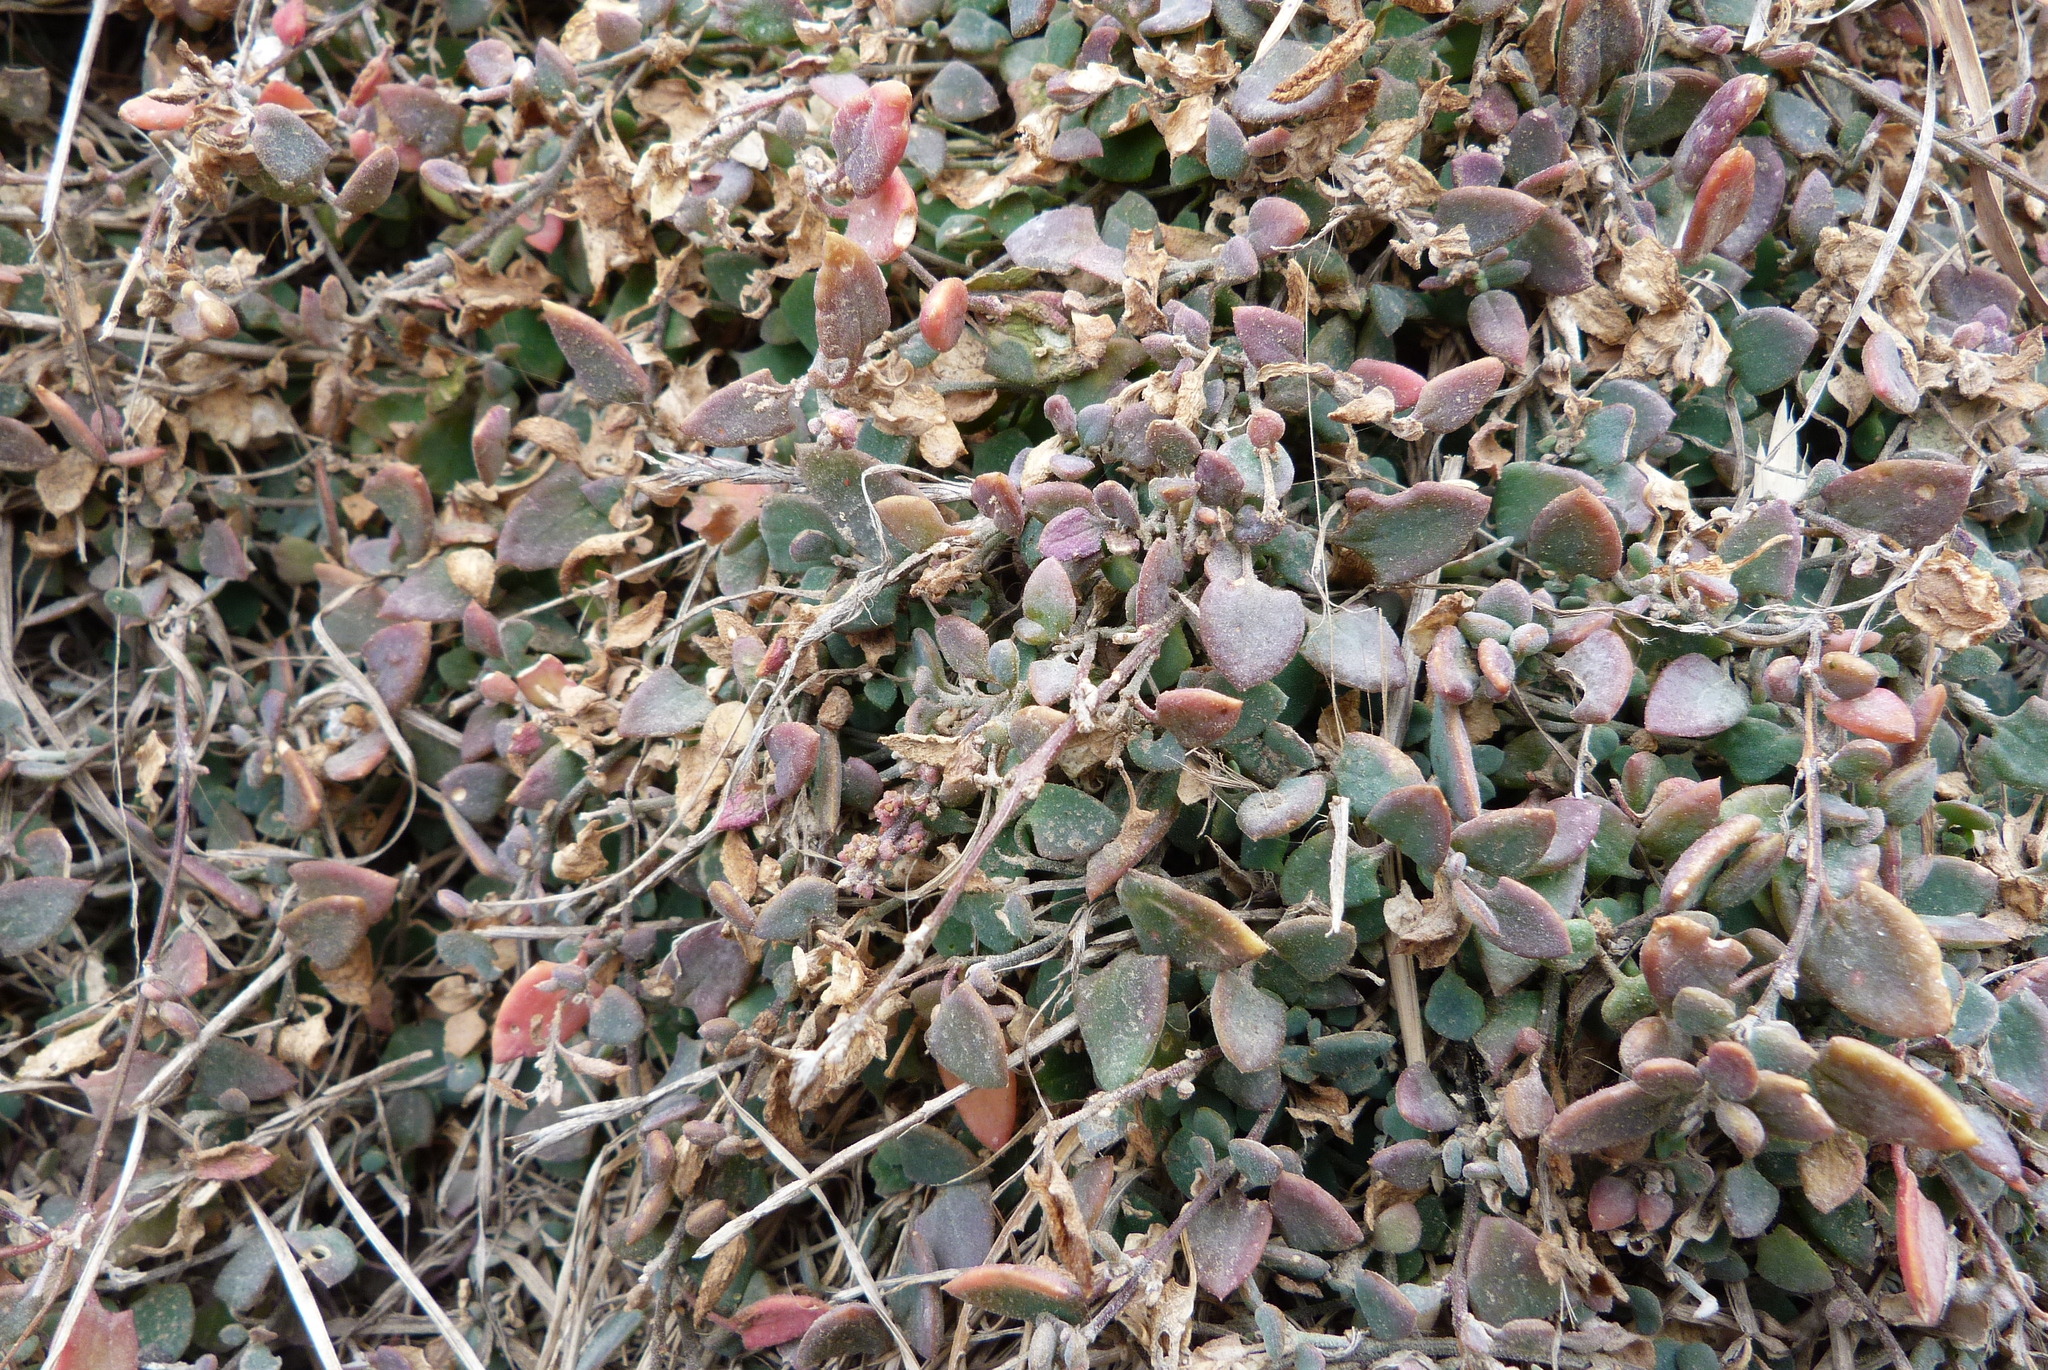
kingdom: Plantae
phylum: Tracheophyta
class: Magnoliopsida
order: Caryophyllales
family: Amaranthaceae
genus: Chenopodium
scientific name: Chenopodium triandrum
